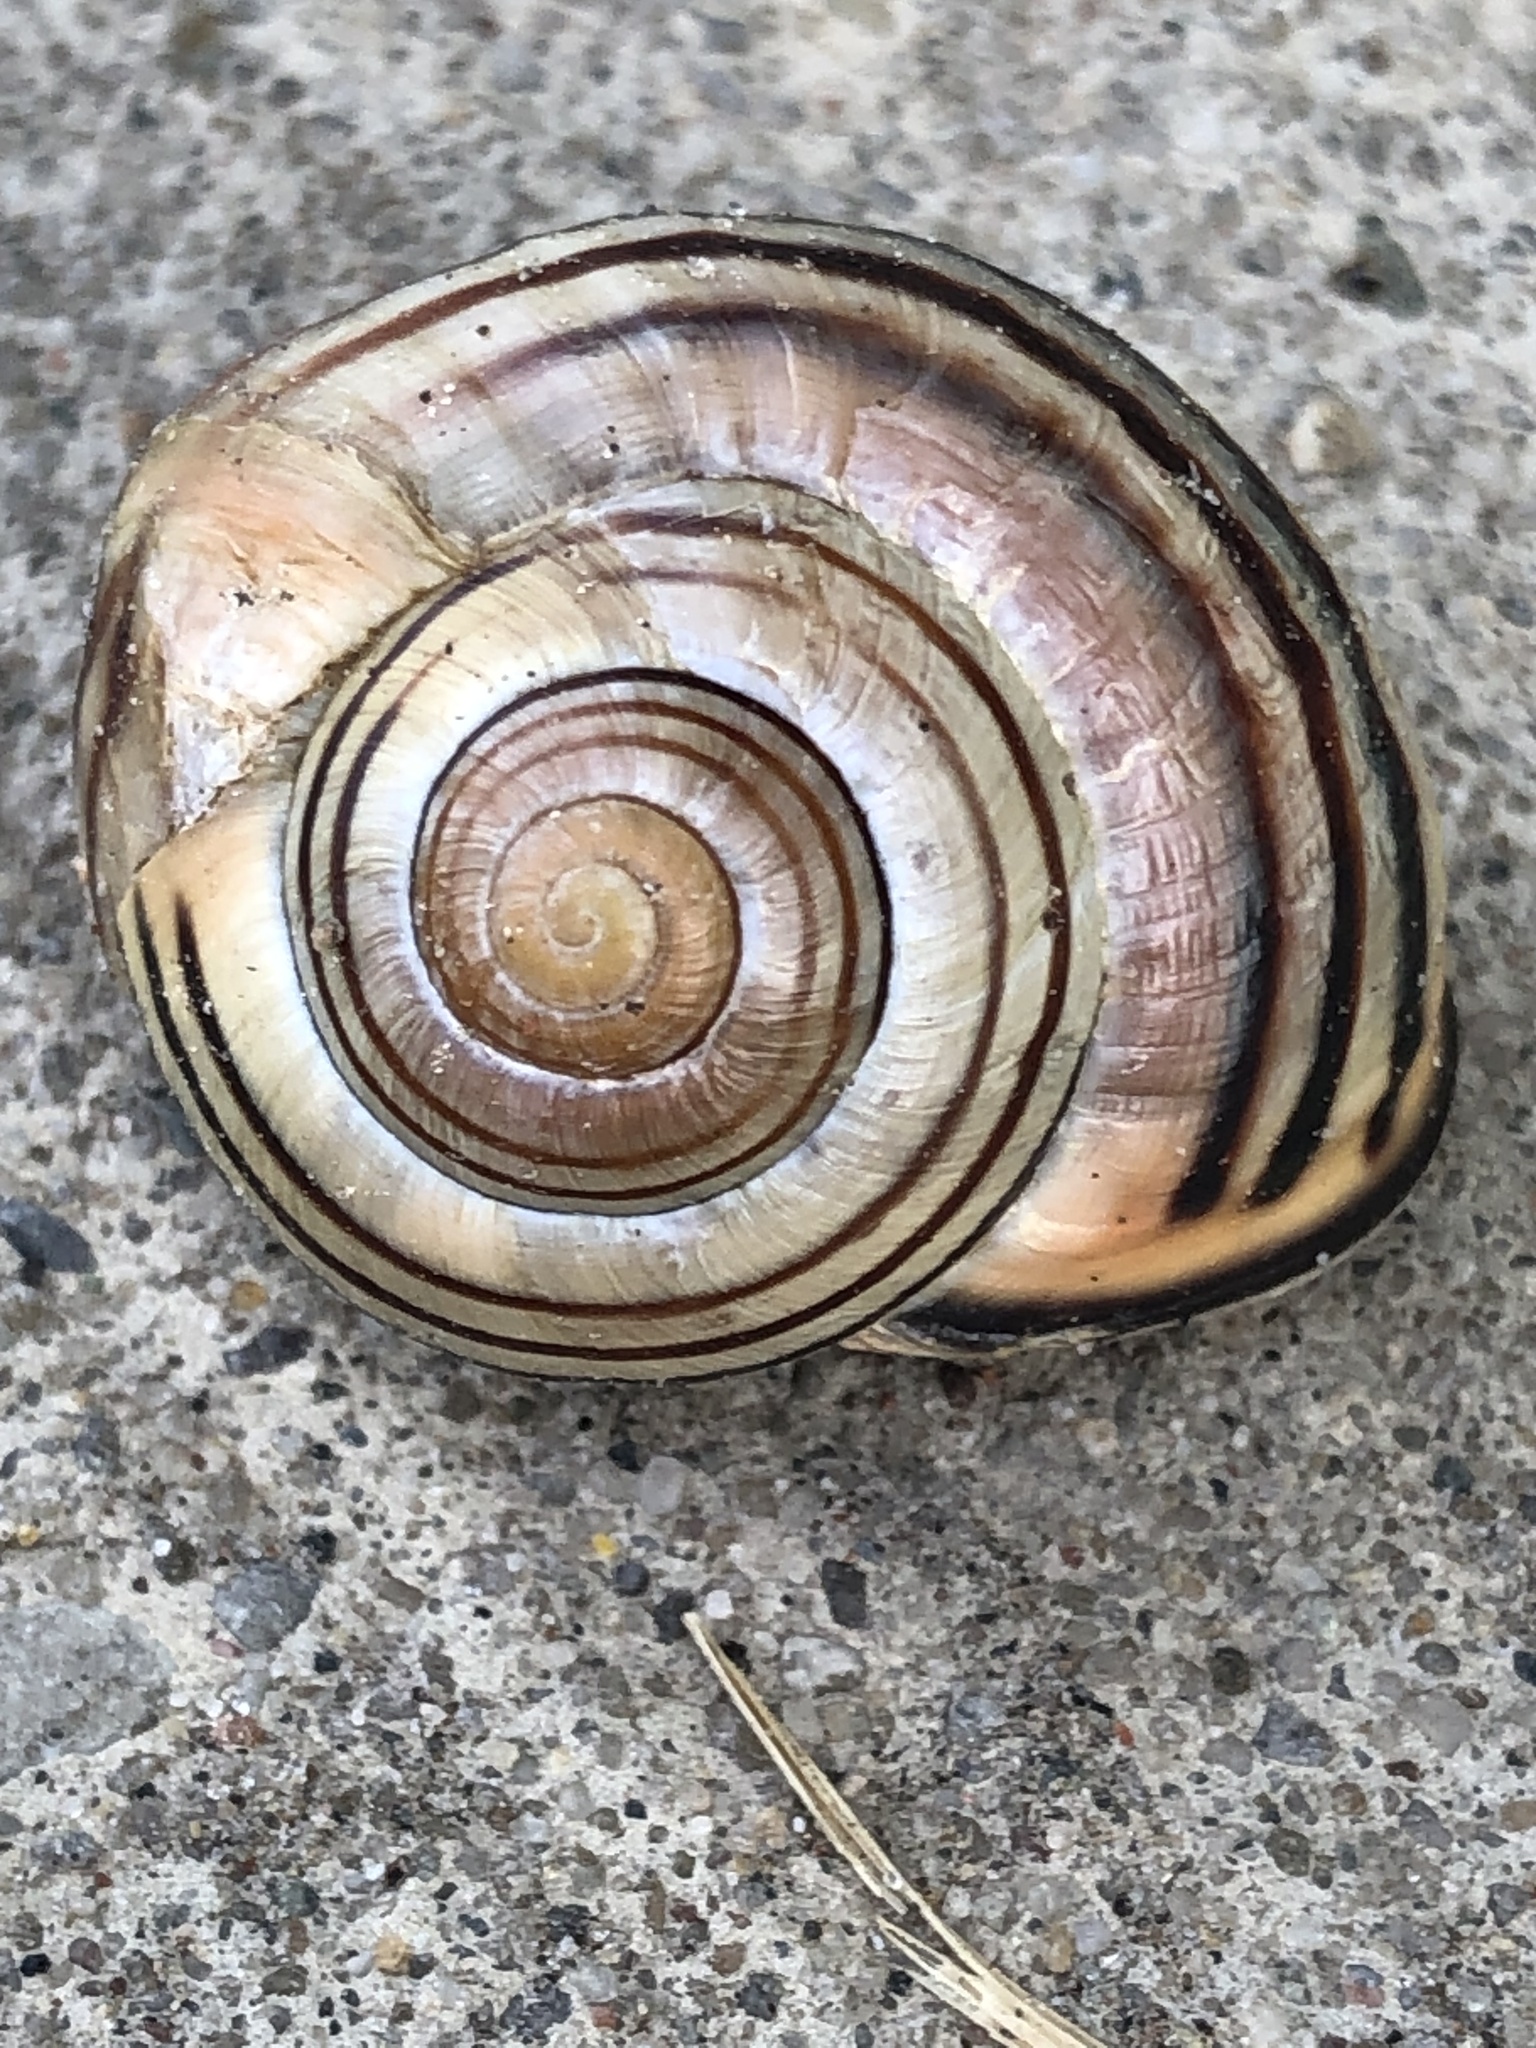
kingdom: Animalia
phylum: Mollusca
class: Gastropoda
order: Stylommatophora
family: Helicidae
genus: Cepaea
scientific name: Cepaea nemoralis
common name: Grovesnail
